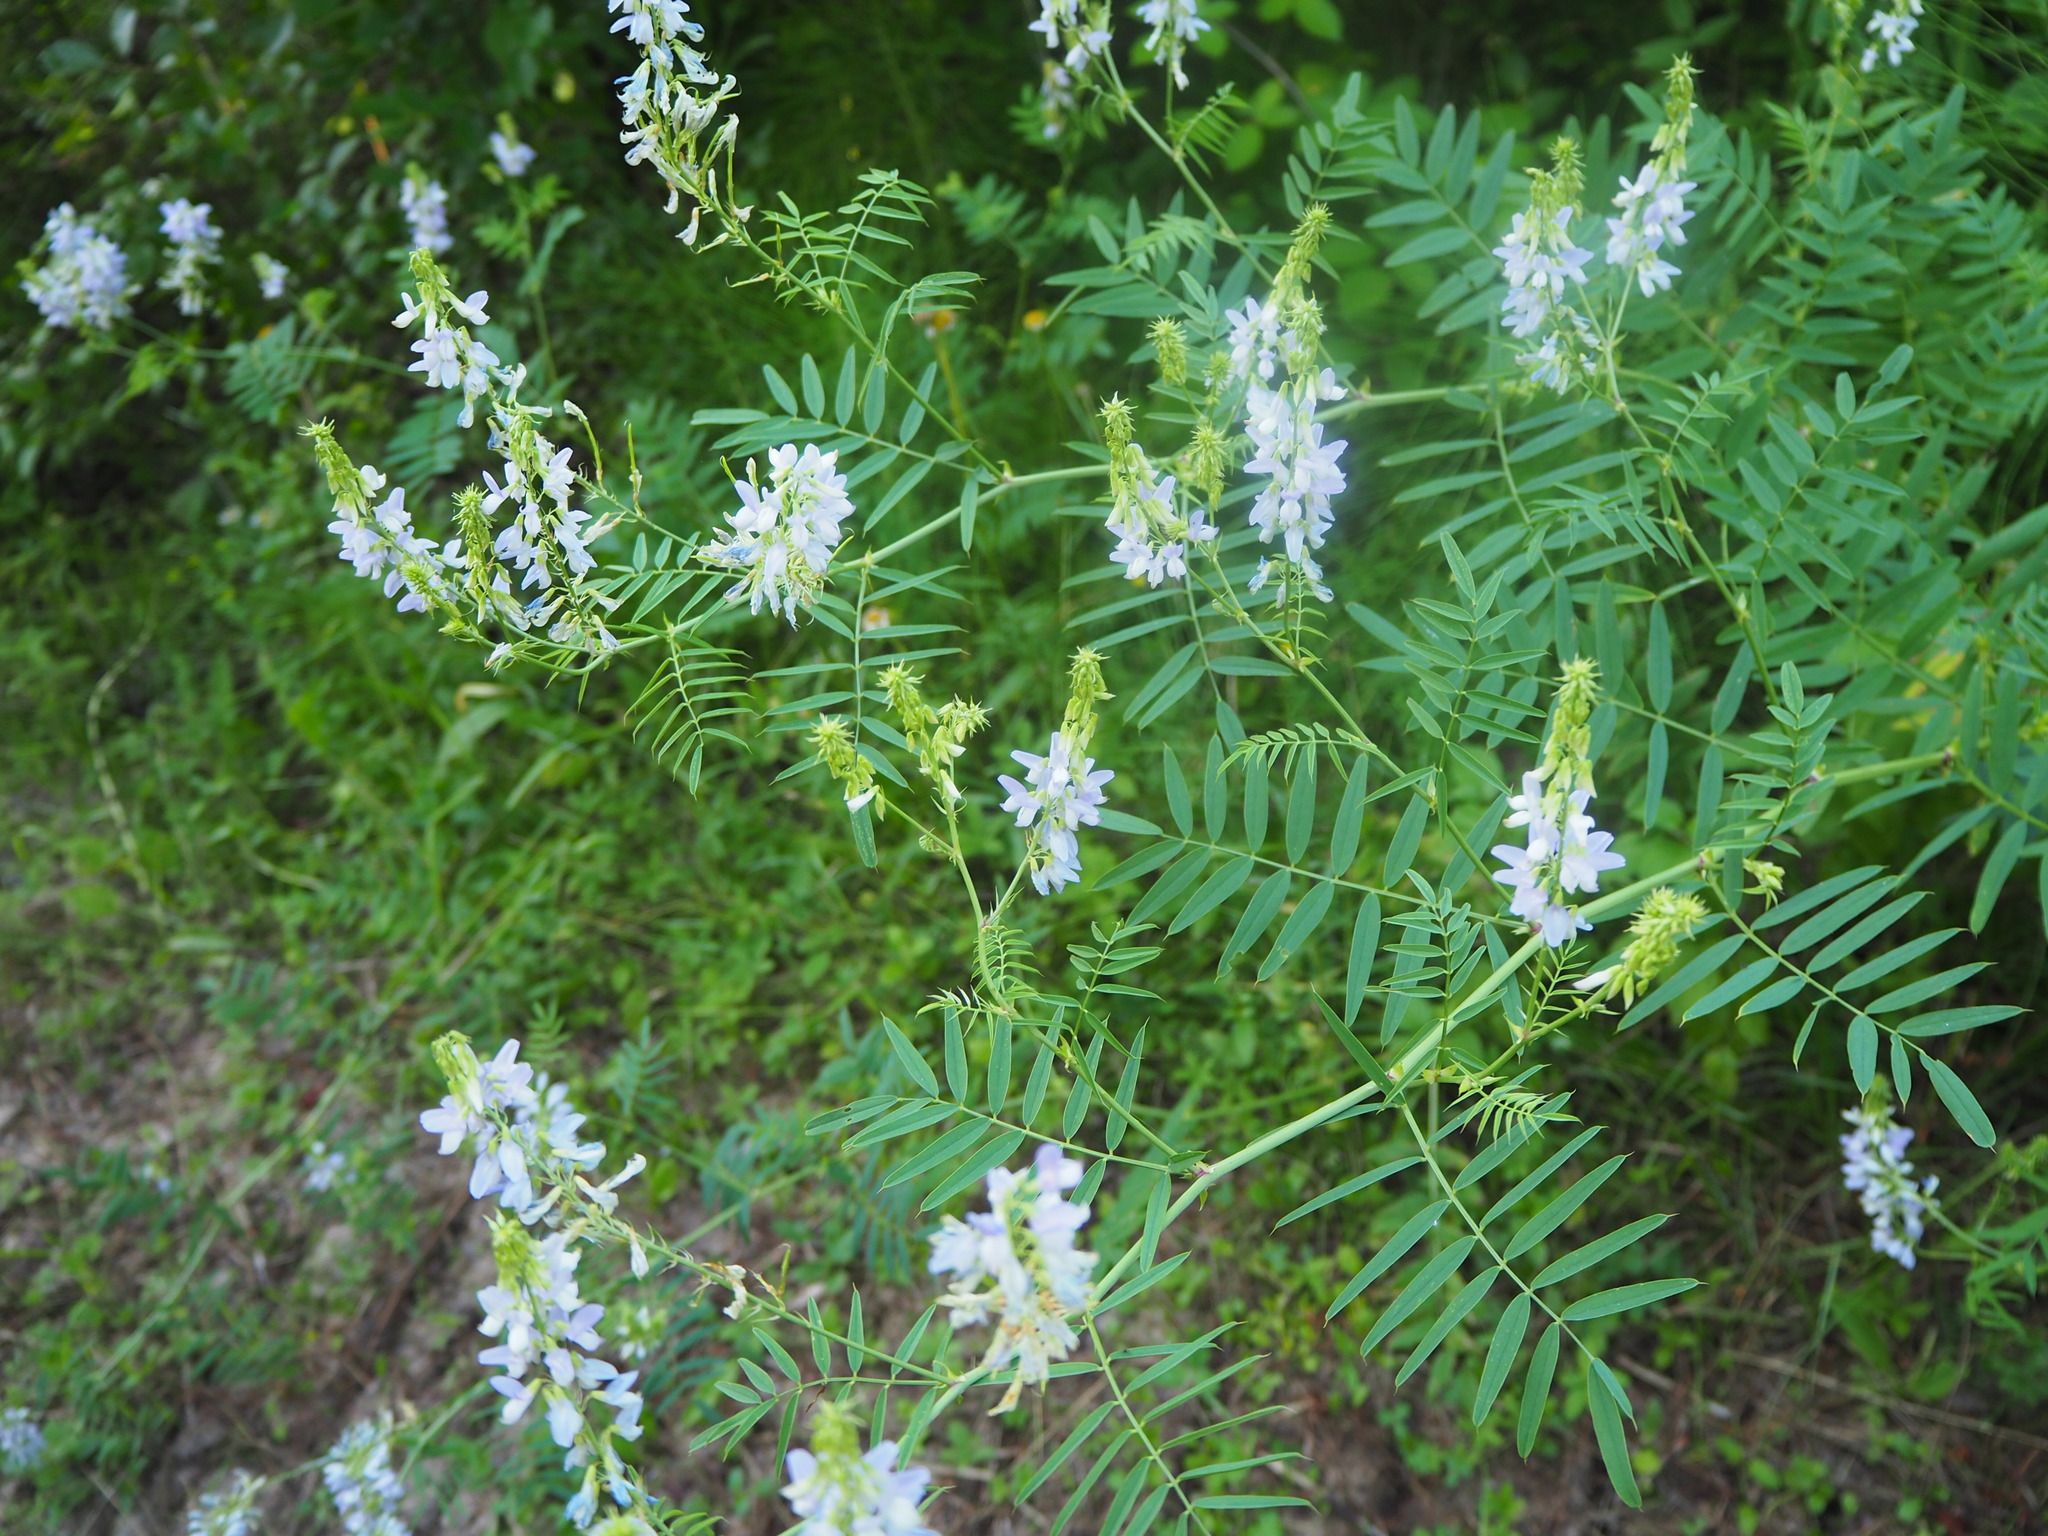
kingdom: Plantae
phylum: Tracheophyta
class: Magnoliopsida
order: Fabales
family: Fabaceae
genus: Galega
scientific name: Galega officinalis
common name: Goat's-rue
